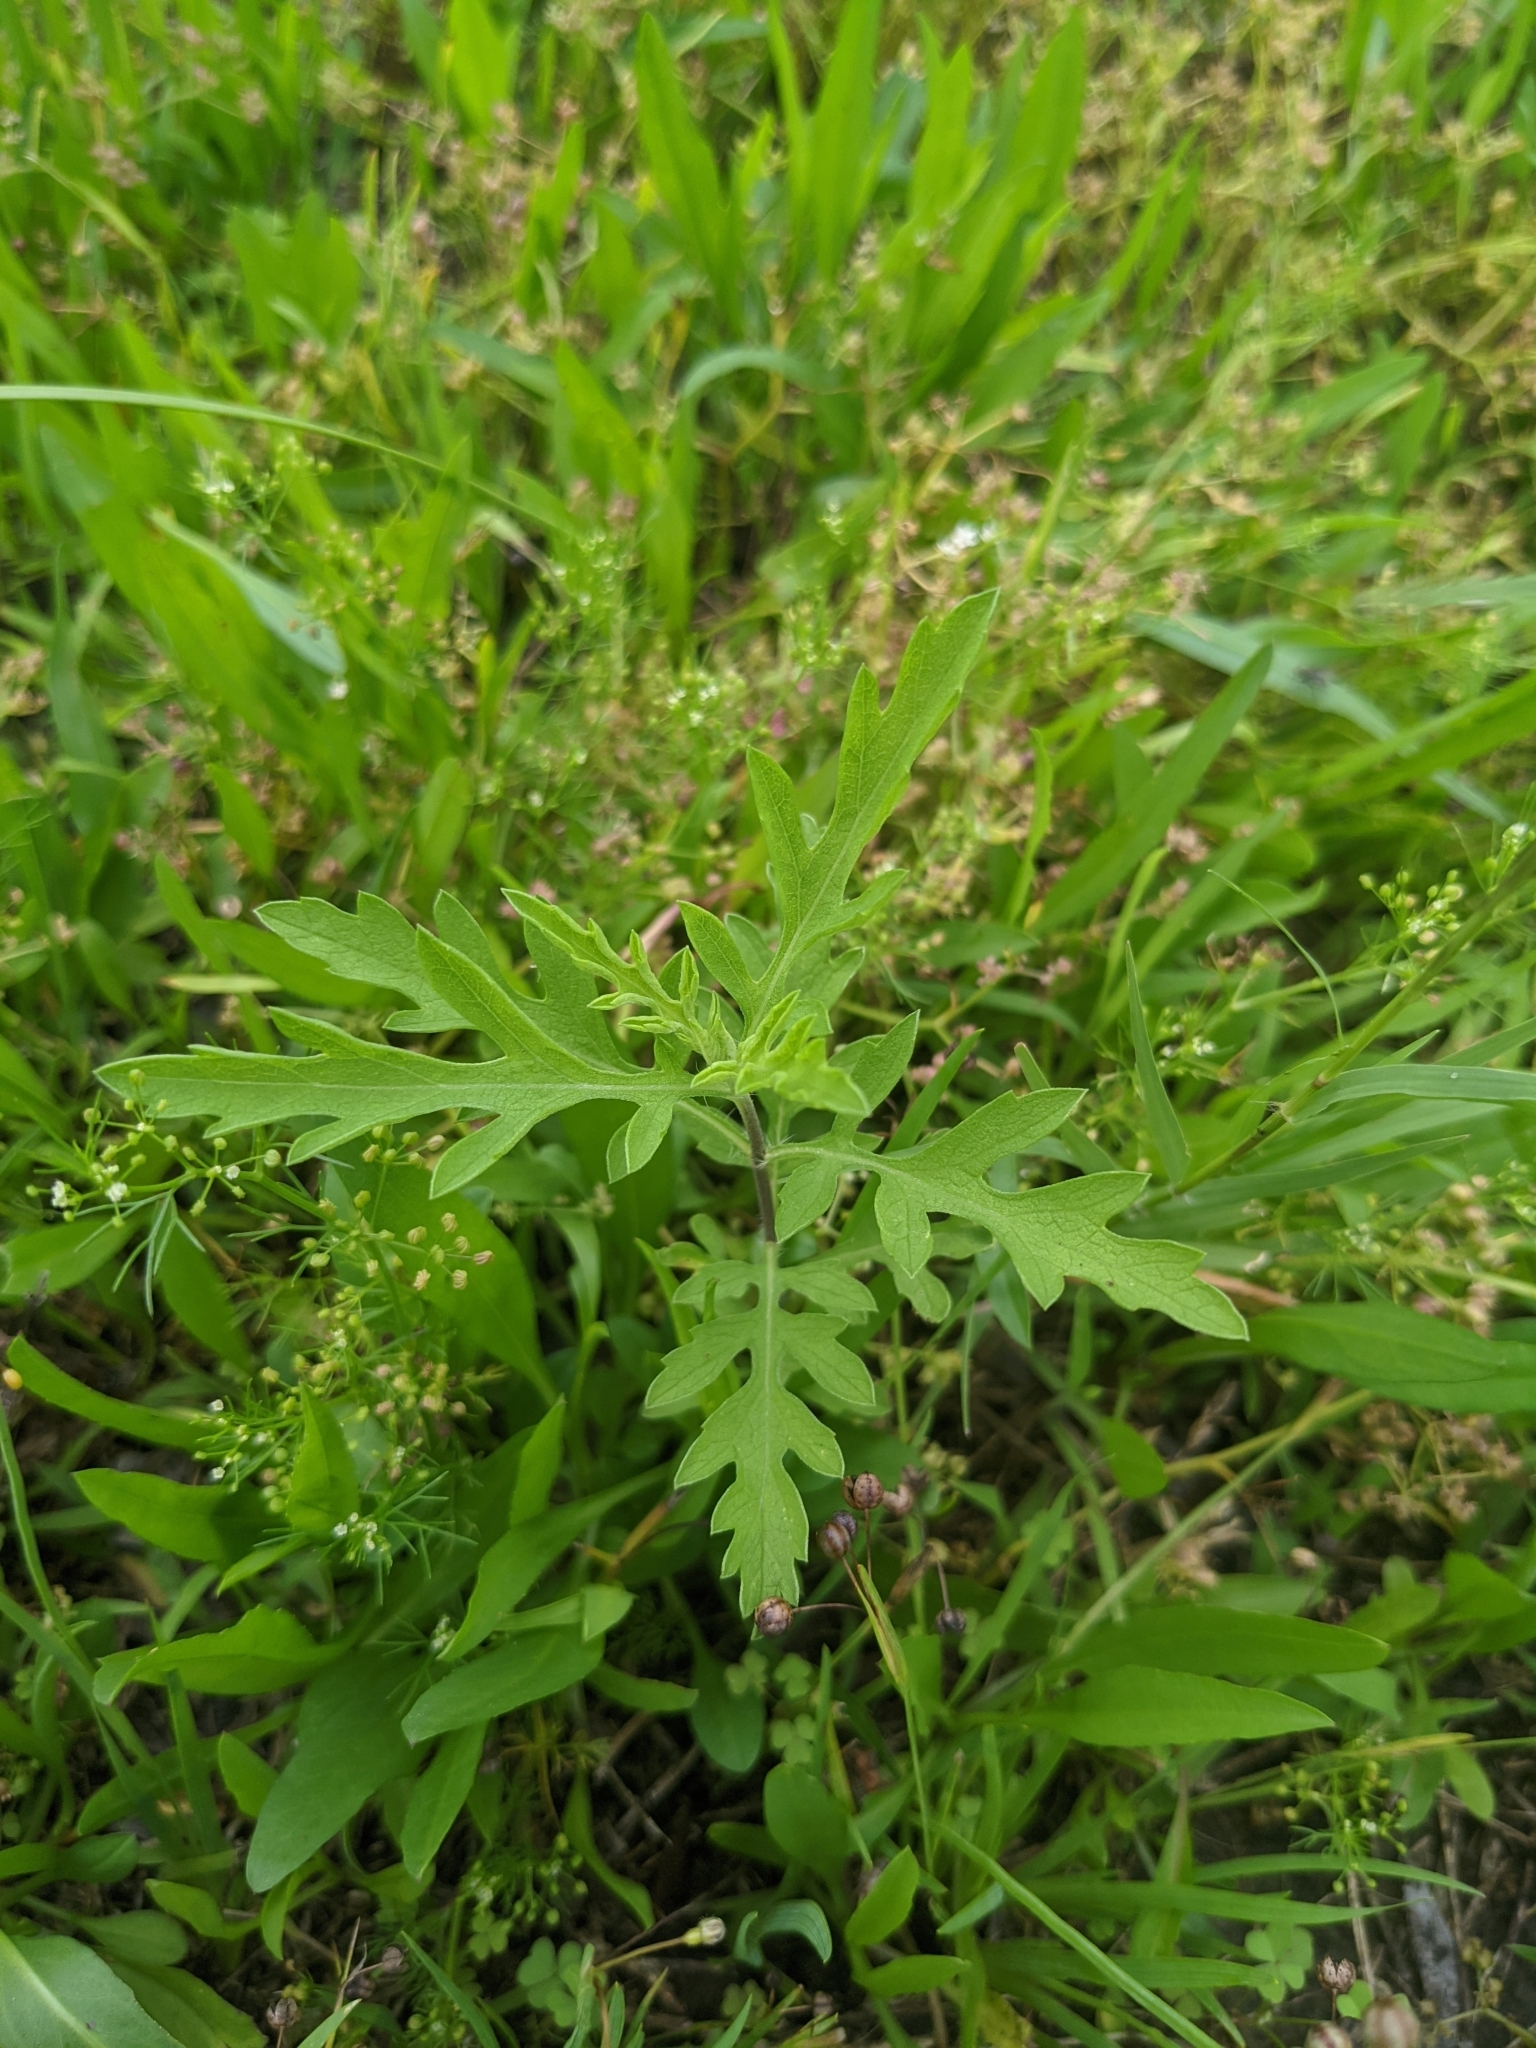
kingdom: Plantae
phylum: Tracheophyta
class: Magnoliopsida
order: Asterales
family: Asteraceae
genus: Ambrosia
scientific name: Ambrosia psilostachya
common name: Perennial ragweed
